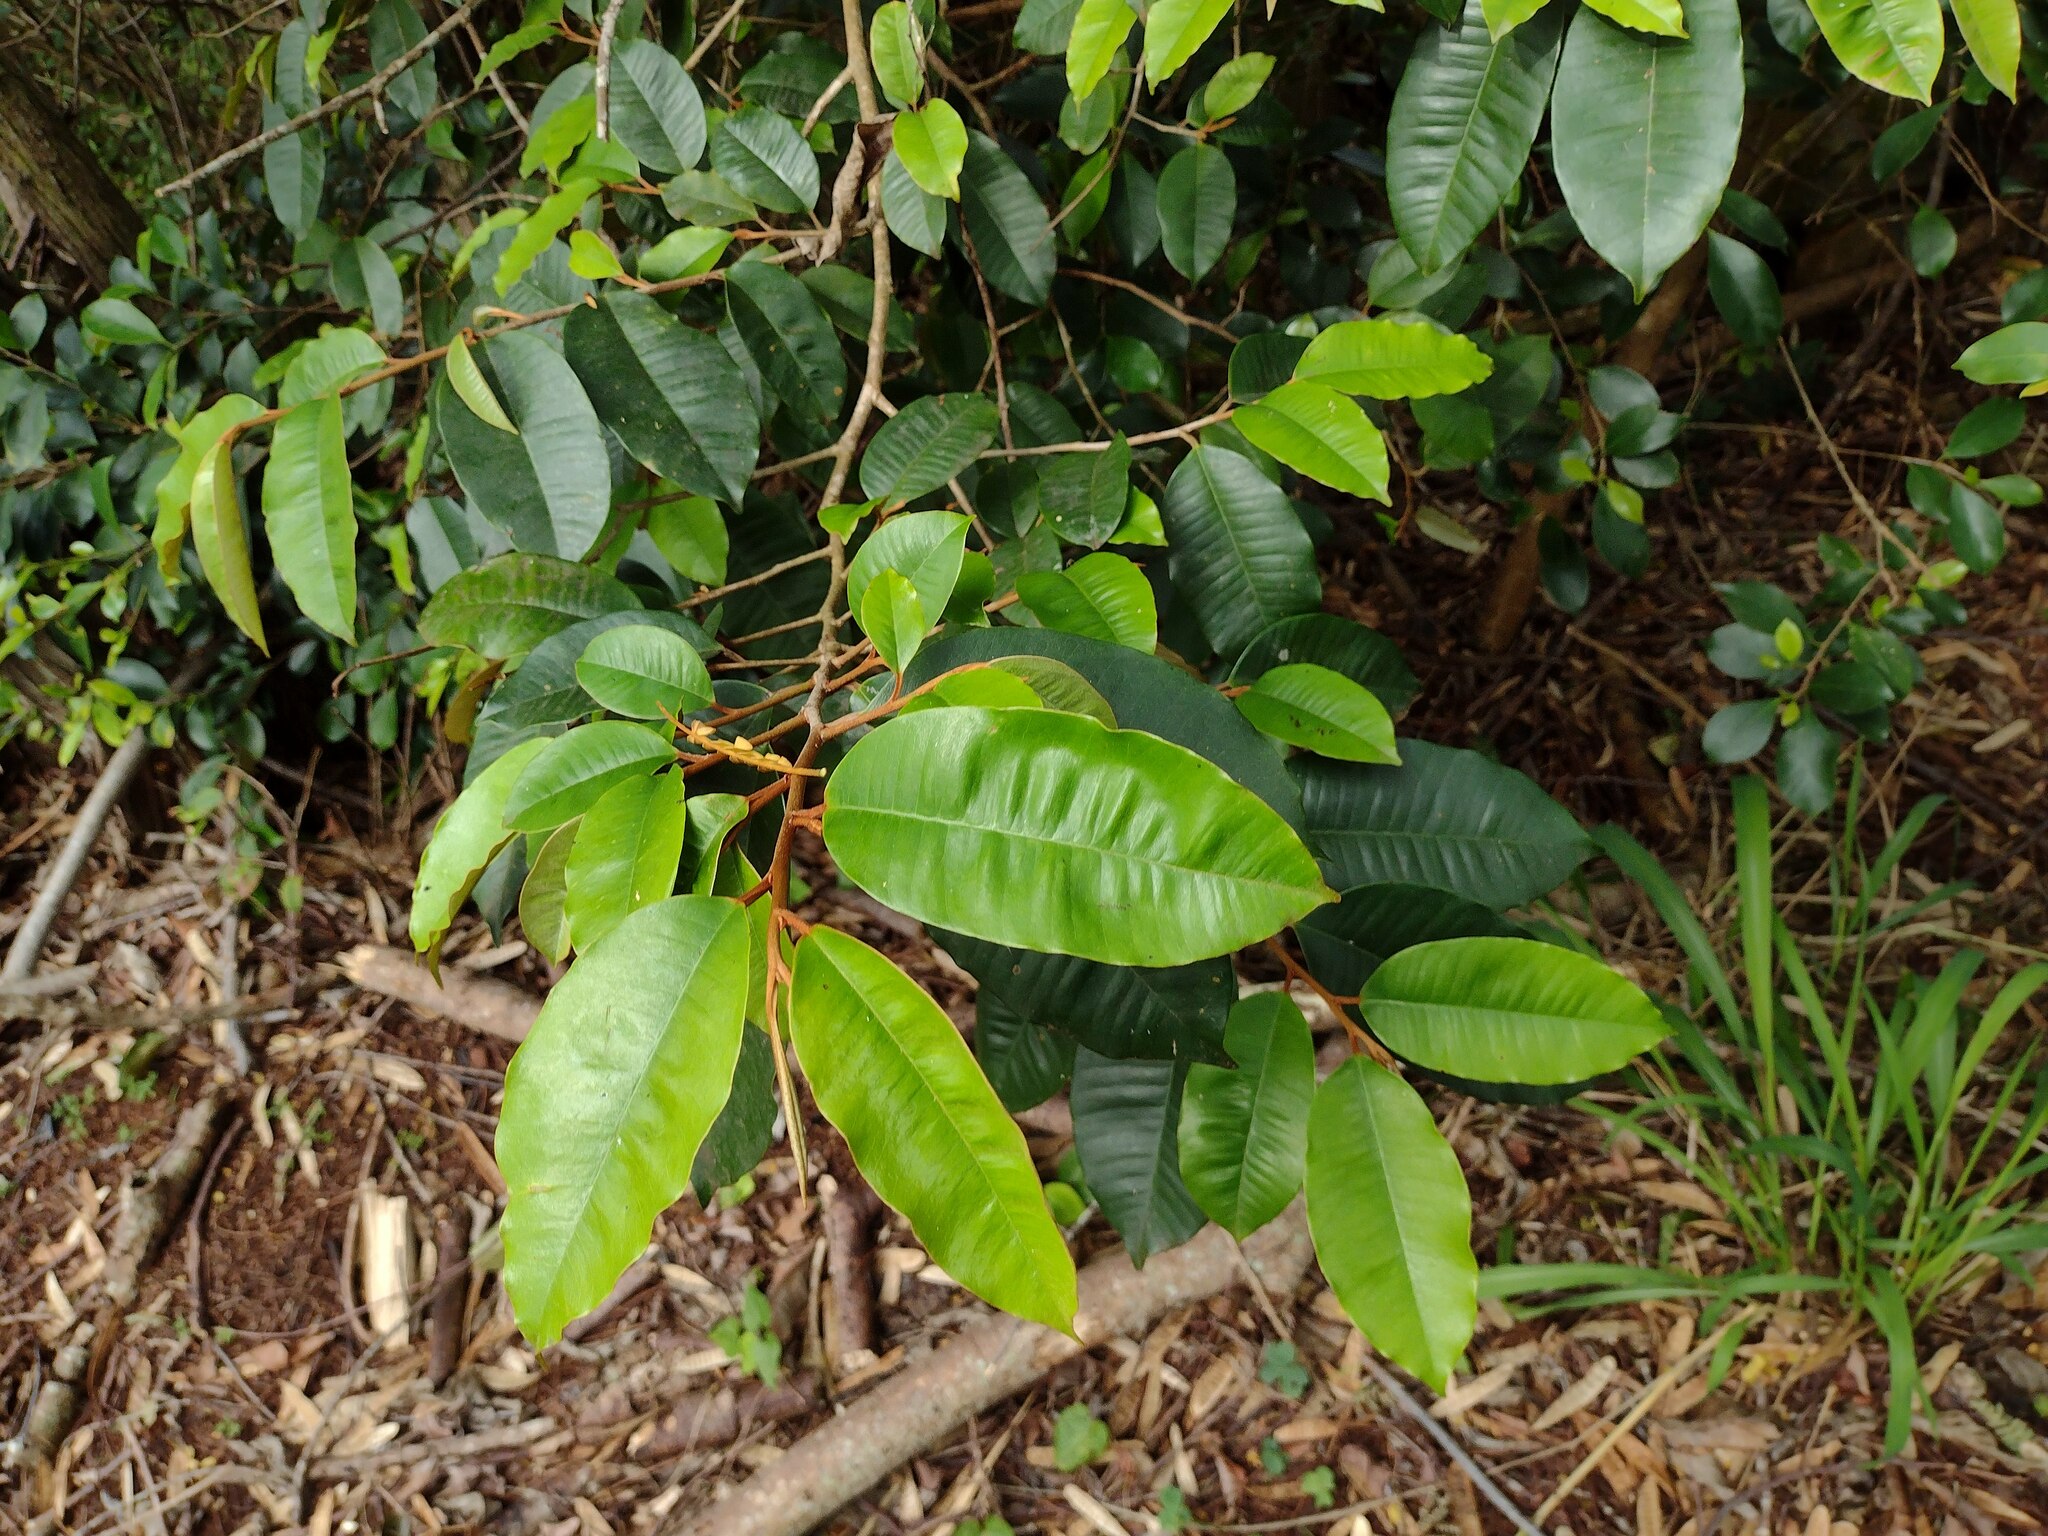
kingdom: Plantae
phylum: Tracheophyta
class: Magnoliopsida
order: Ericales
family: Sapotaceae
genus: Chrysophyllum
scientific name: Chrysophyllum oliviforme
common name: Satinleaf
